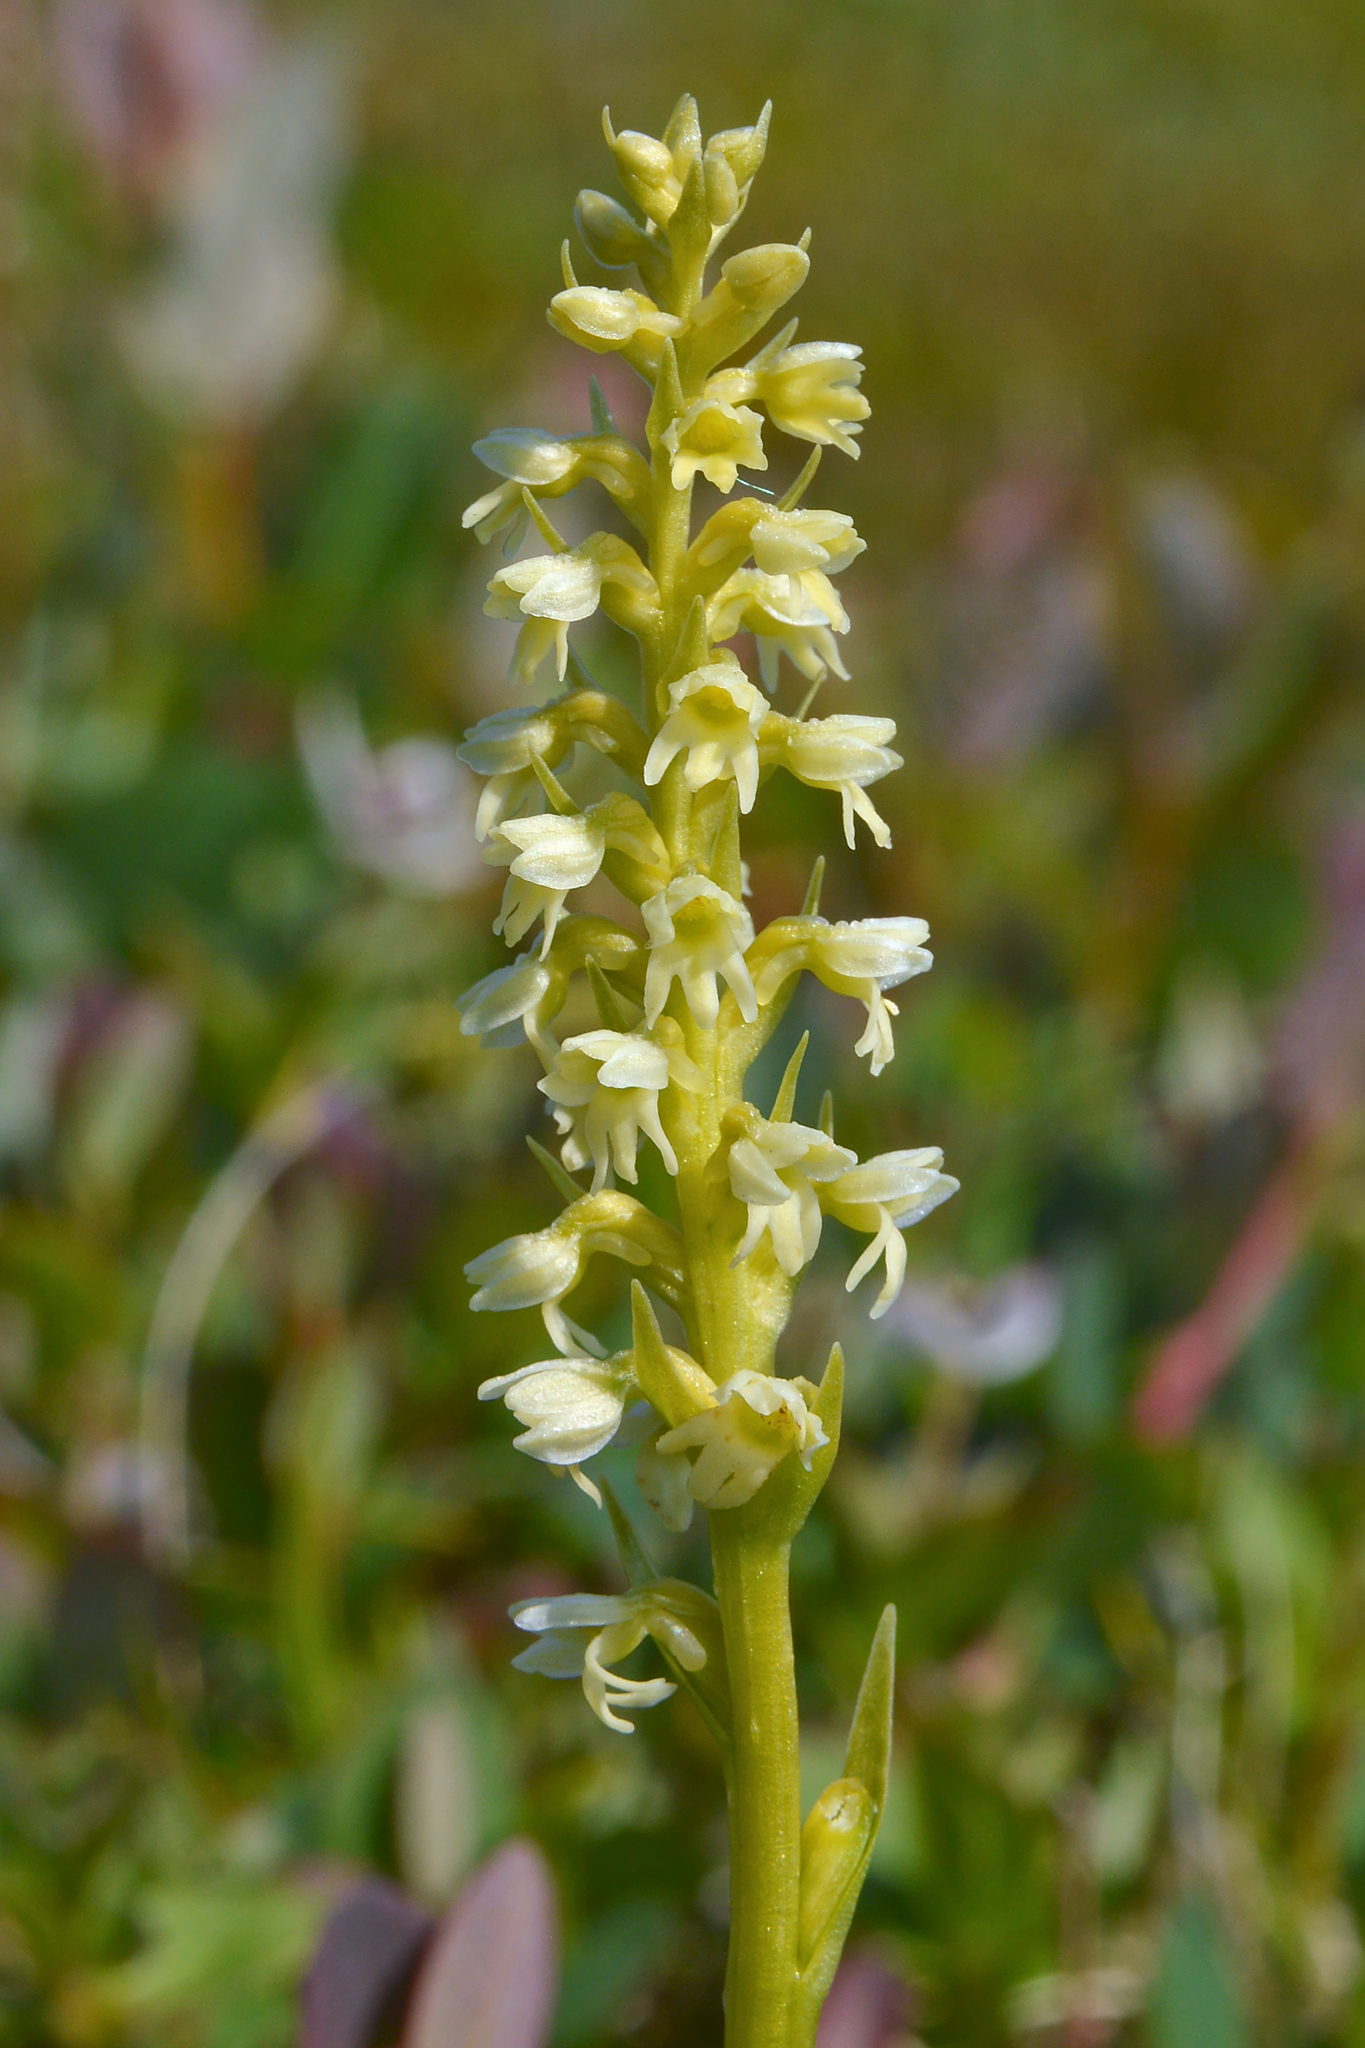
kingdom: Plantae
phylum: Tracheophyta
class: Liliopsida
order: Asparagales
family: Orchidaceae
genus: Pseudorchis
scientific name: Pseudorchis straminea
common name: Vanilla-scented bog orchid
